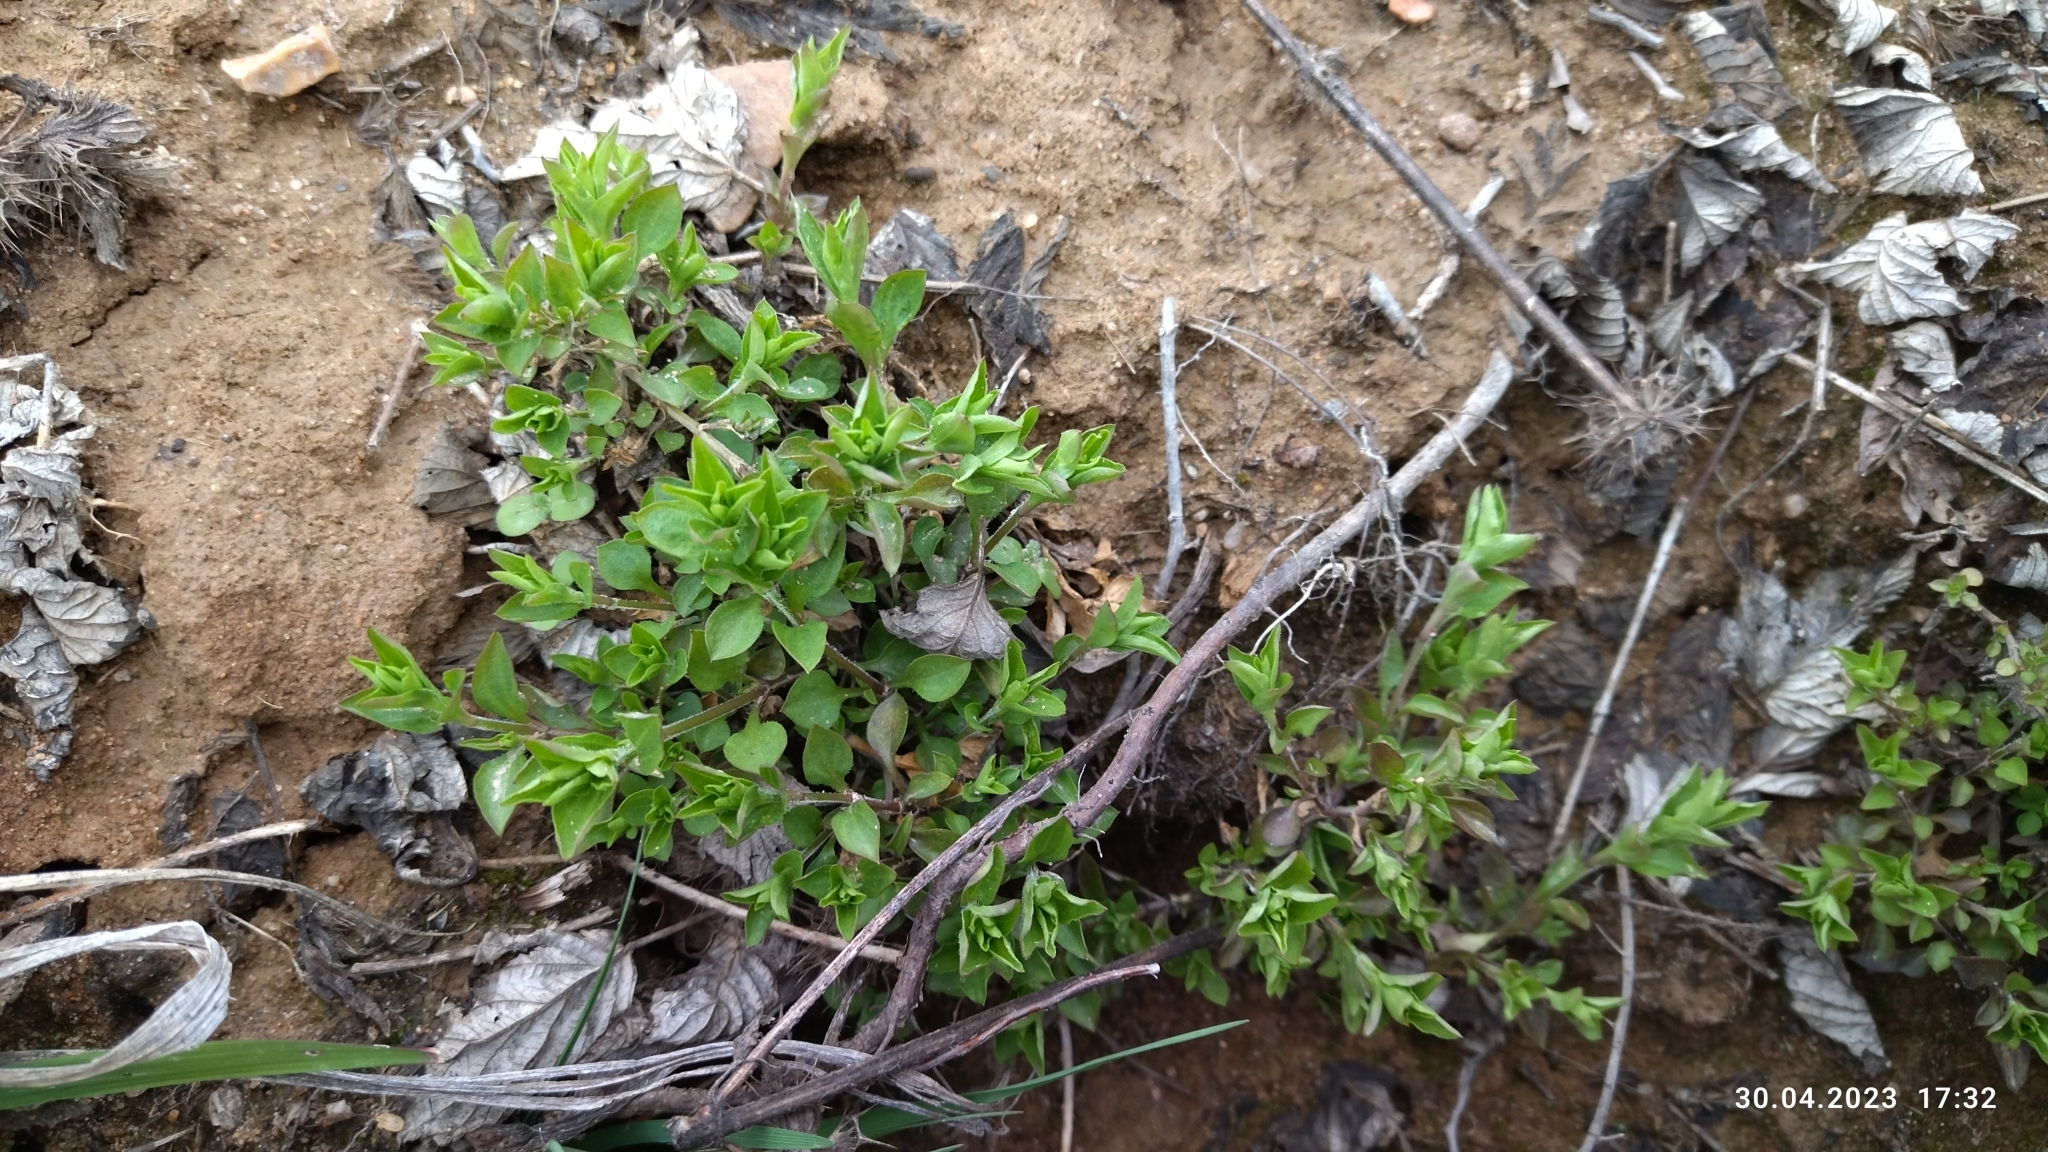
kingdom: Plantae
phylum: Tracheophyta
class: Magnoliopsida
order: Caryophyllales
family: Caryophyllaceae
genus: Moehringia
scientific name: Moehringia trinervia
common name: Three-nerved sandwort
